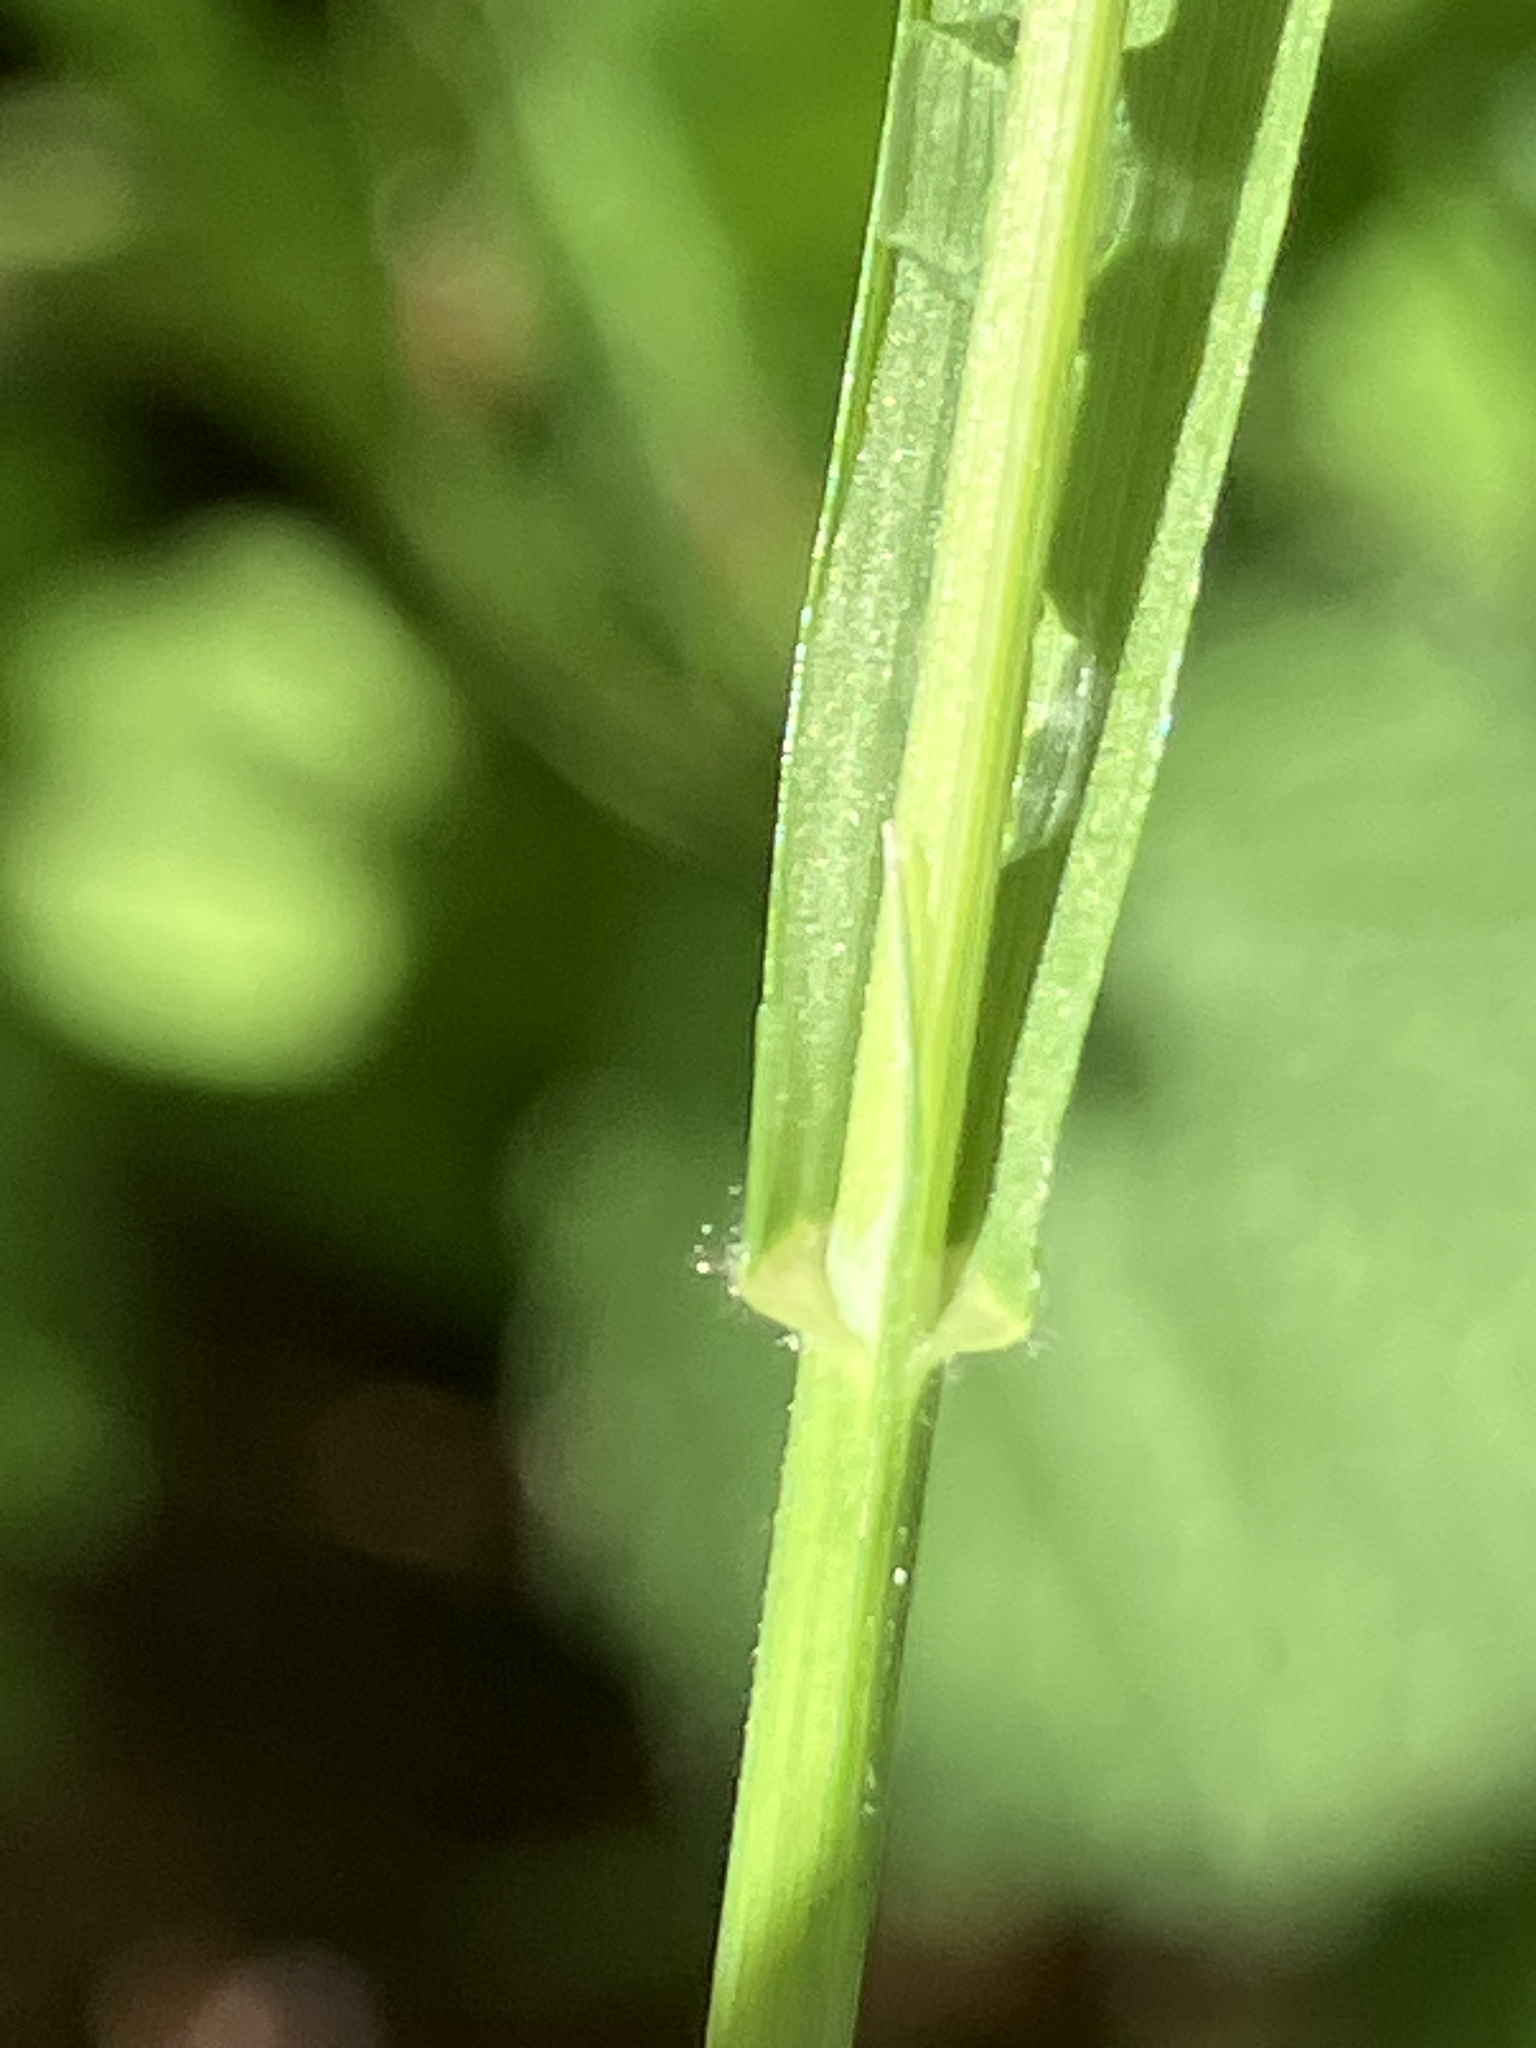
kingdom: Plantae
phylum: Tracheophyta
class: Liliopsida
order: Poales
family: Poaceae
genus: Melica
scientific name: Melica uniflora
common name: Wood melick
